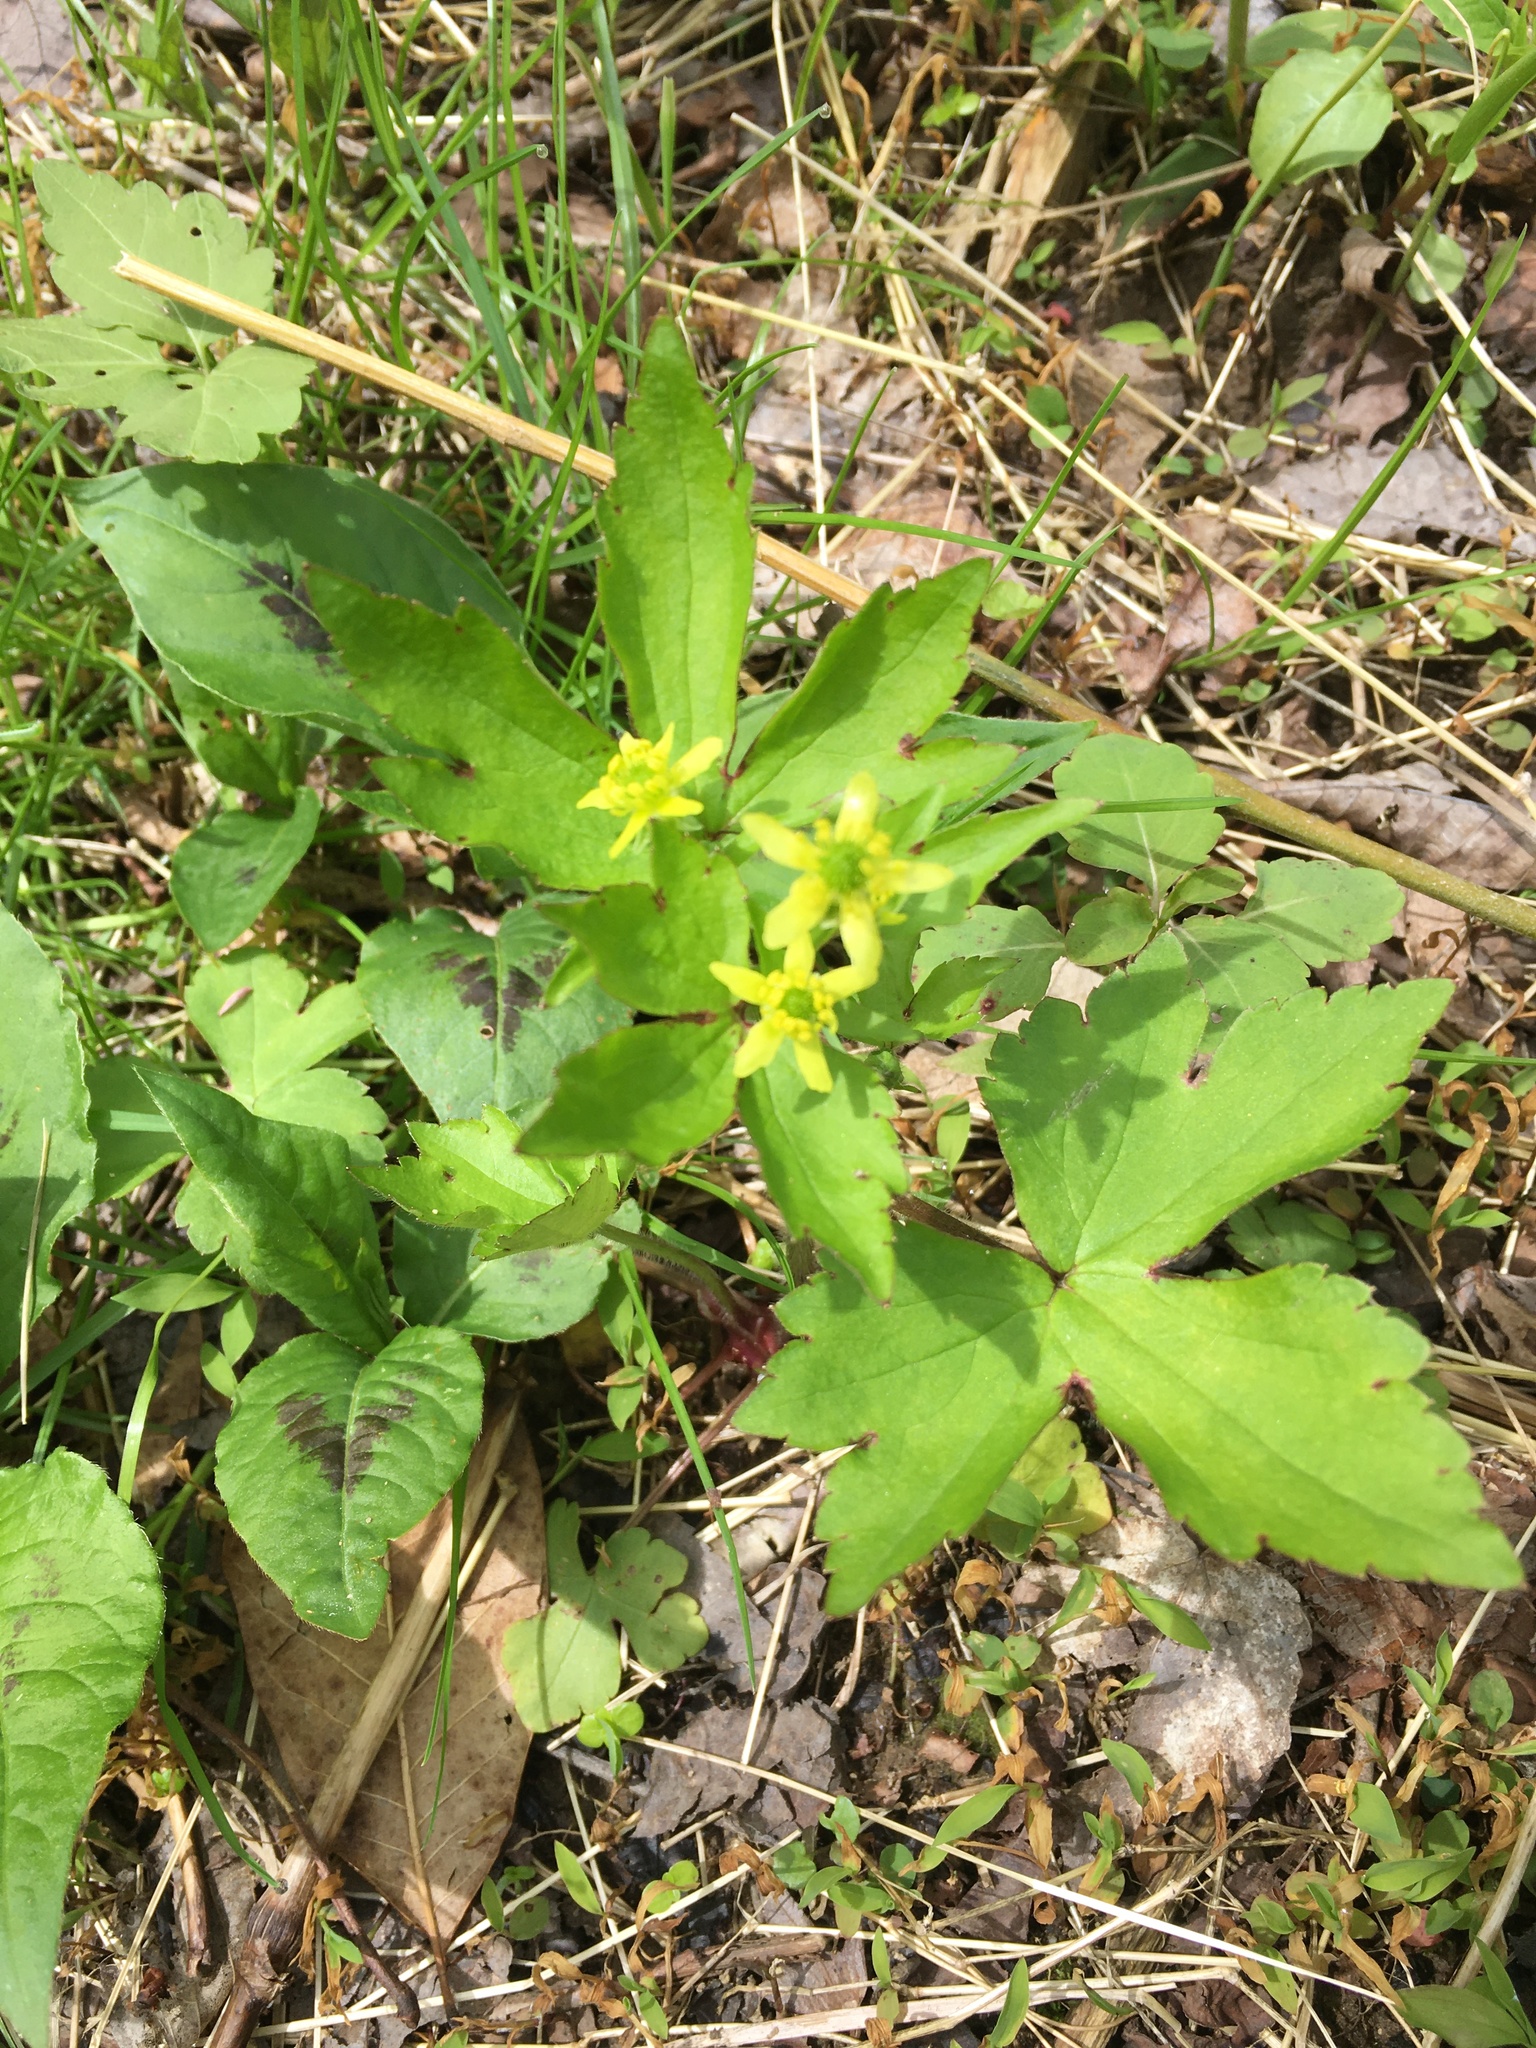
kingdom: Plantae
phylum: Tracheophyta
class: Magnoliopsida
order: Ranunculales
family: Ranunculaceae
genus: Ranunculus
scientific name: Ranunculus recurvatus
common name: Blisterwort
